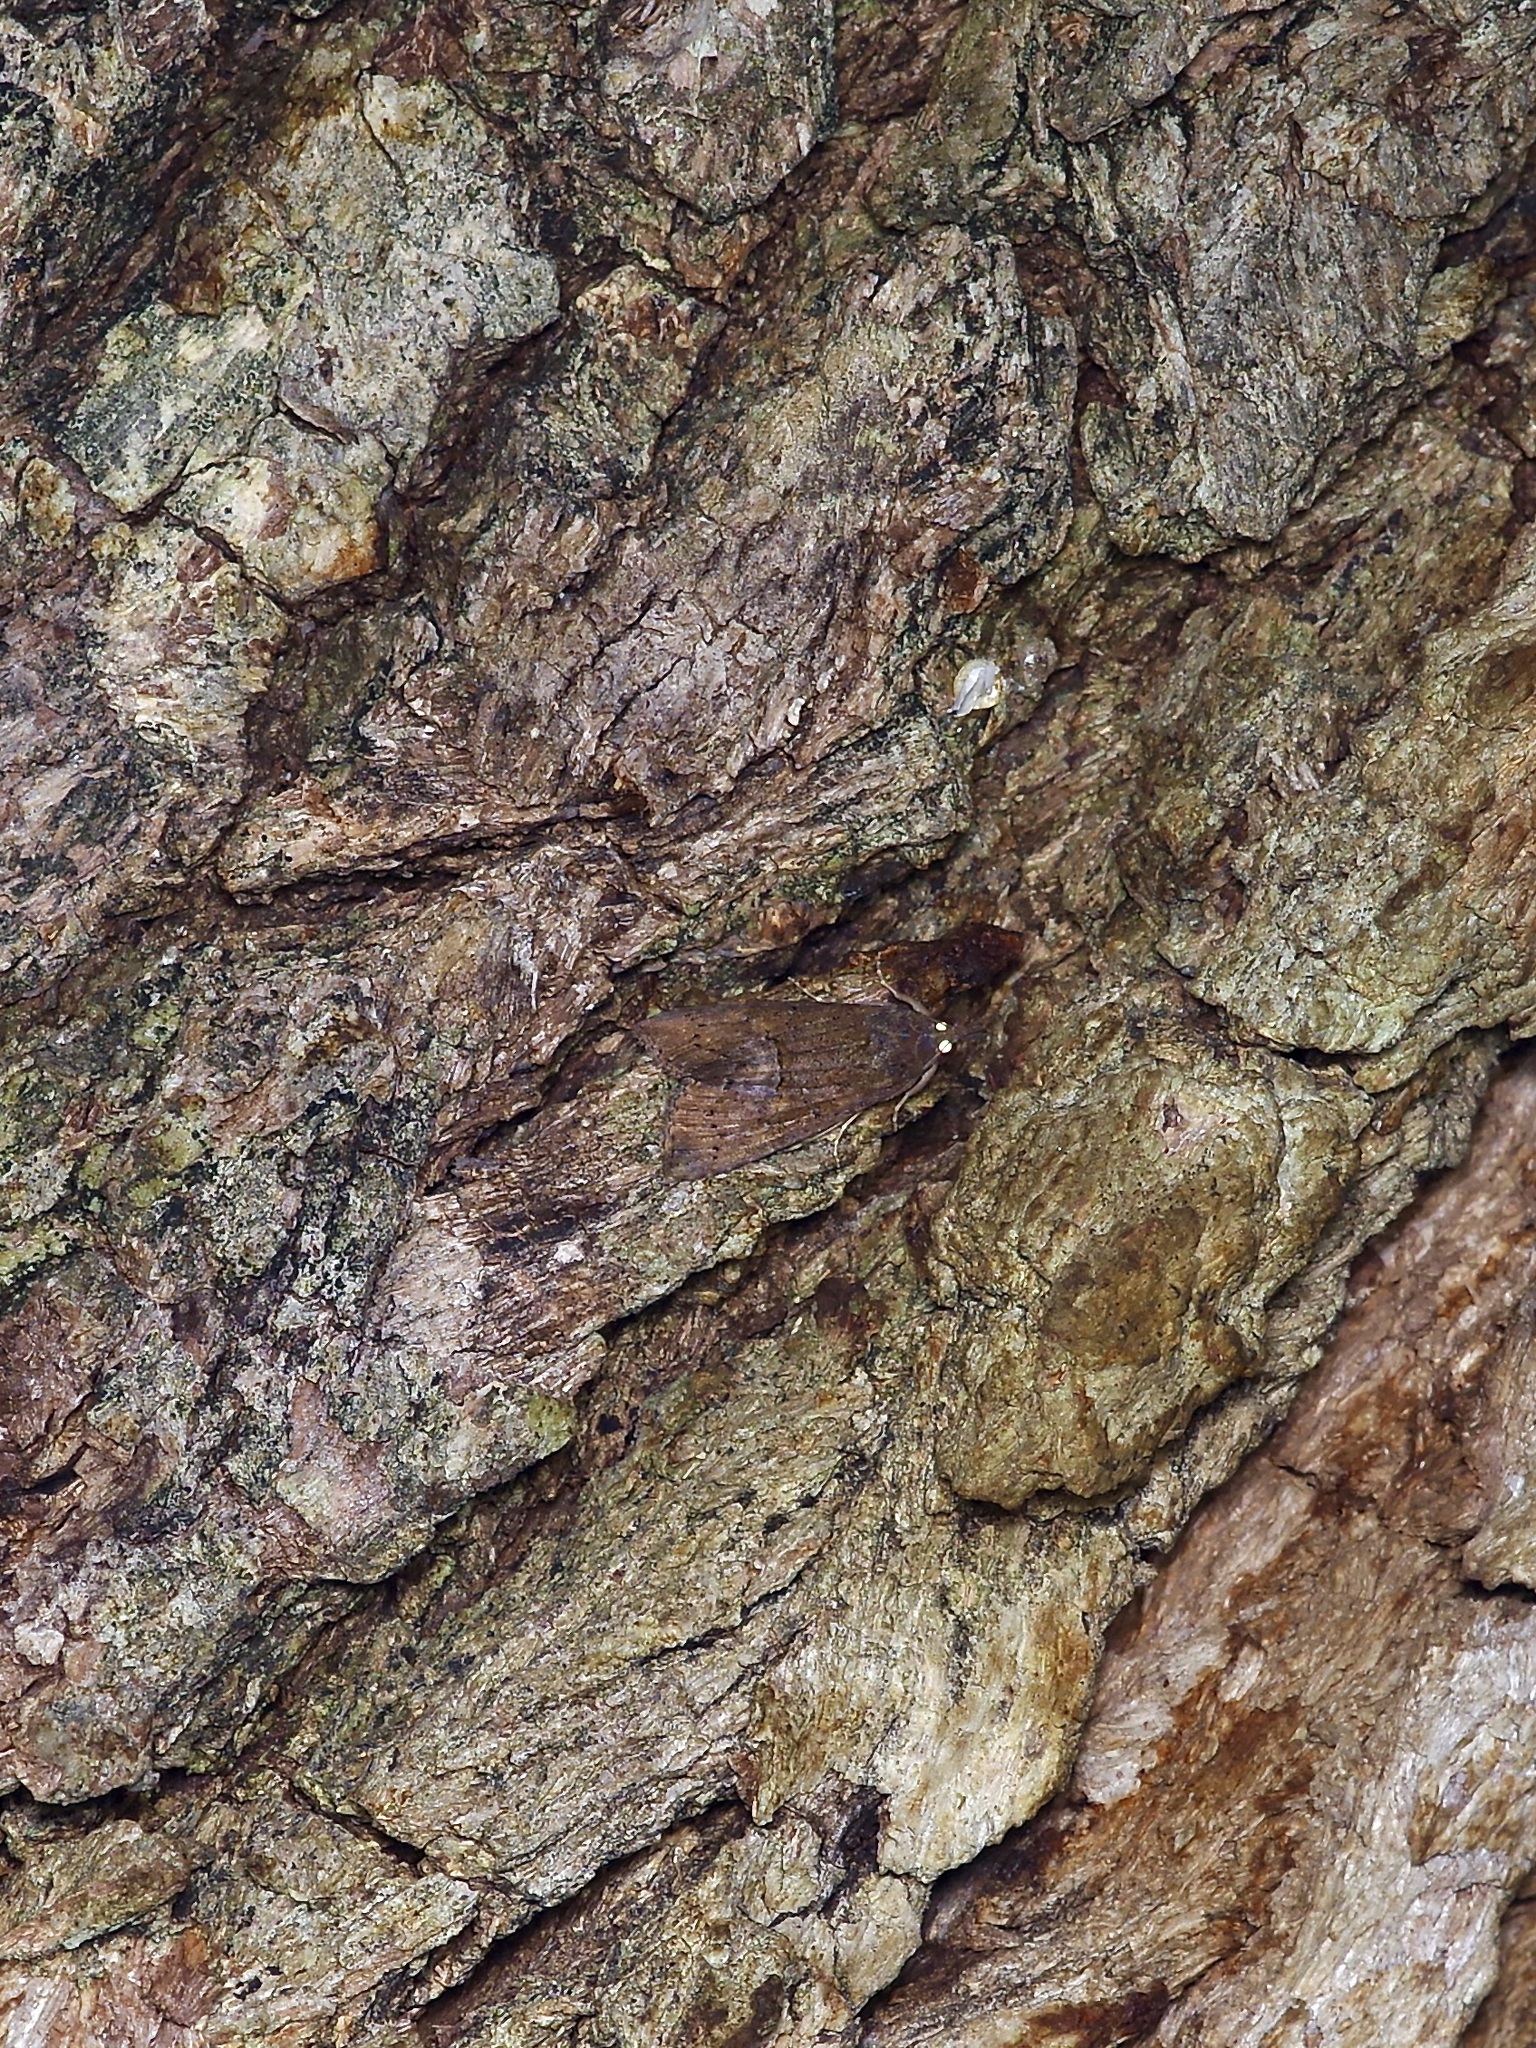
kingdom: Animalia
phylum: Arthropoda
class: Insecta
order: Lepidoptera
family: Erebidae
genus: Hypena
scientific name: Hypena scabra
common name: Green cloverworm
